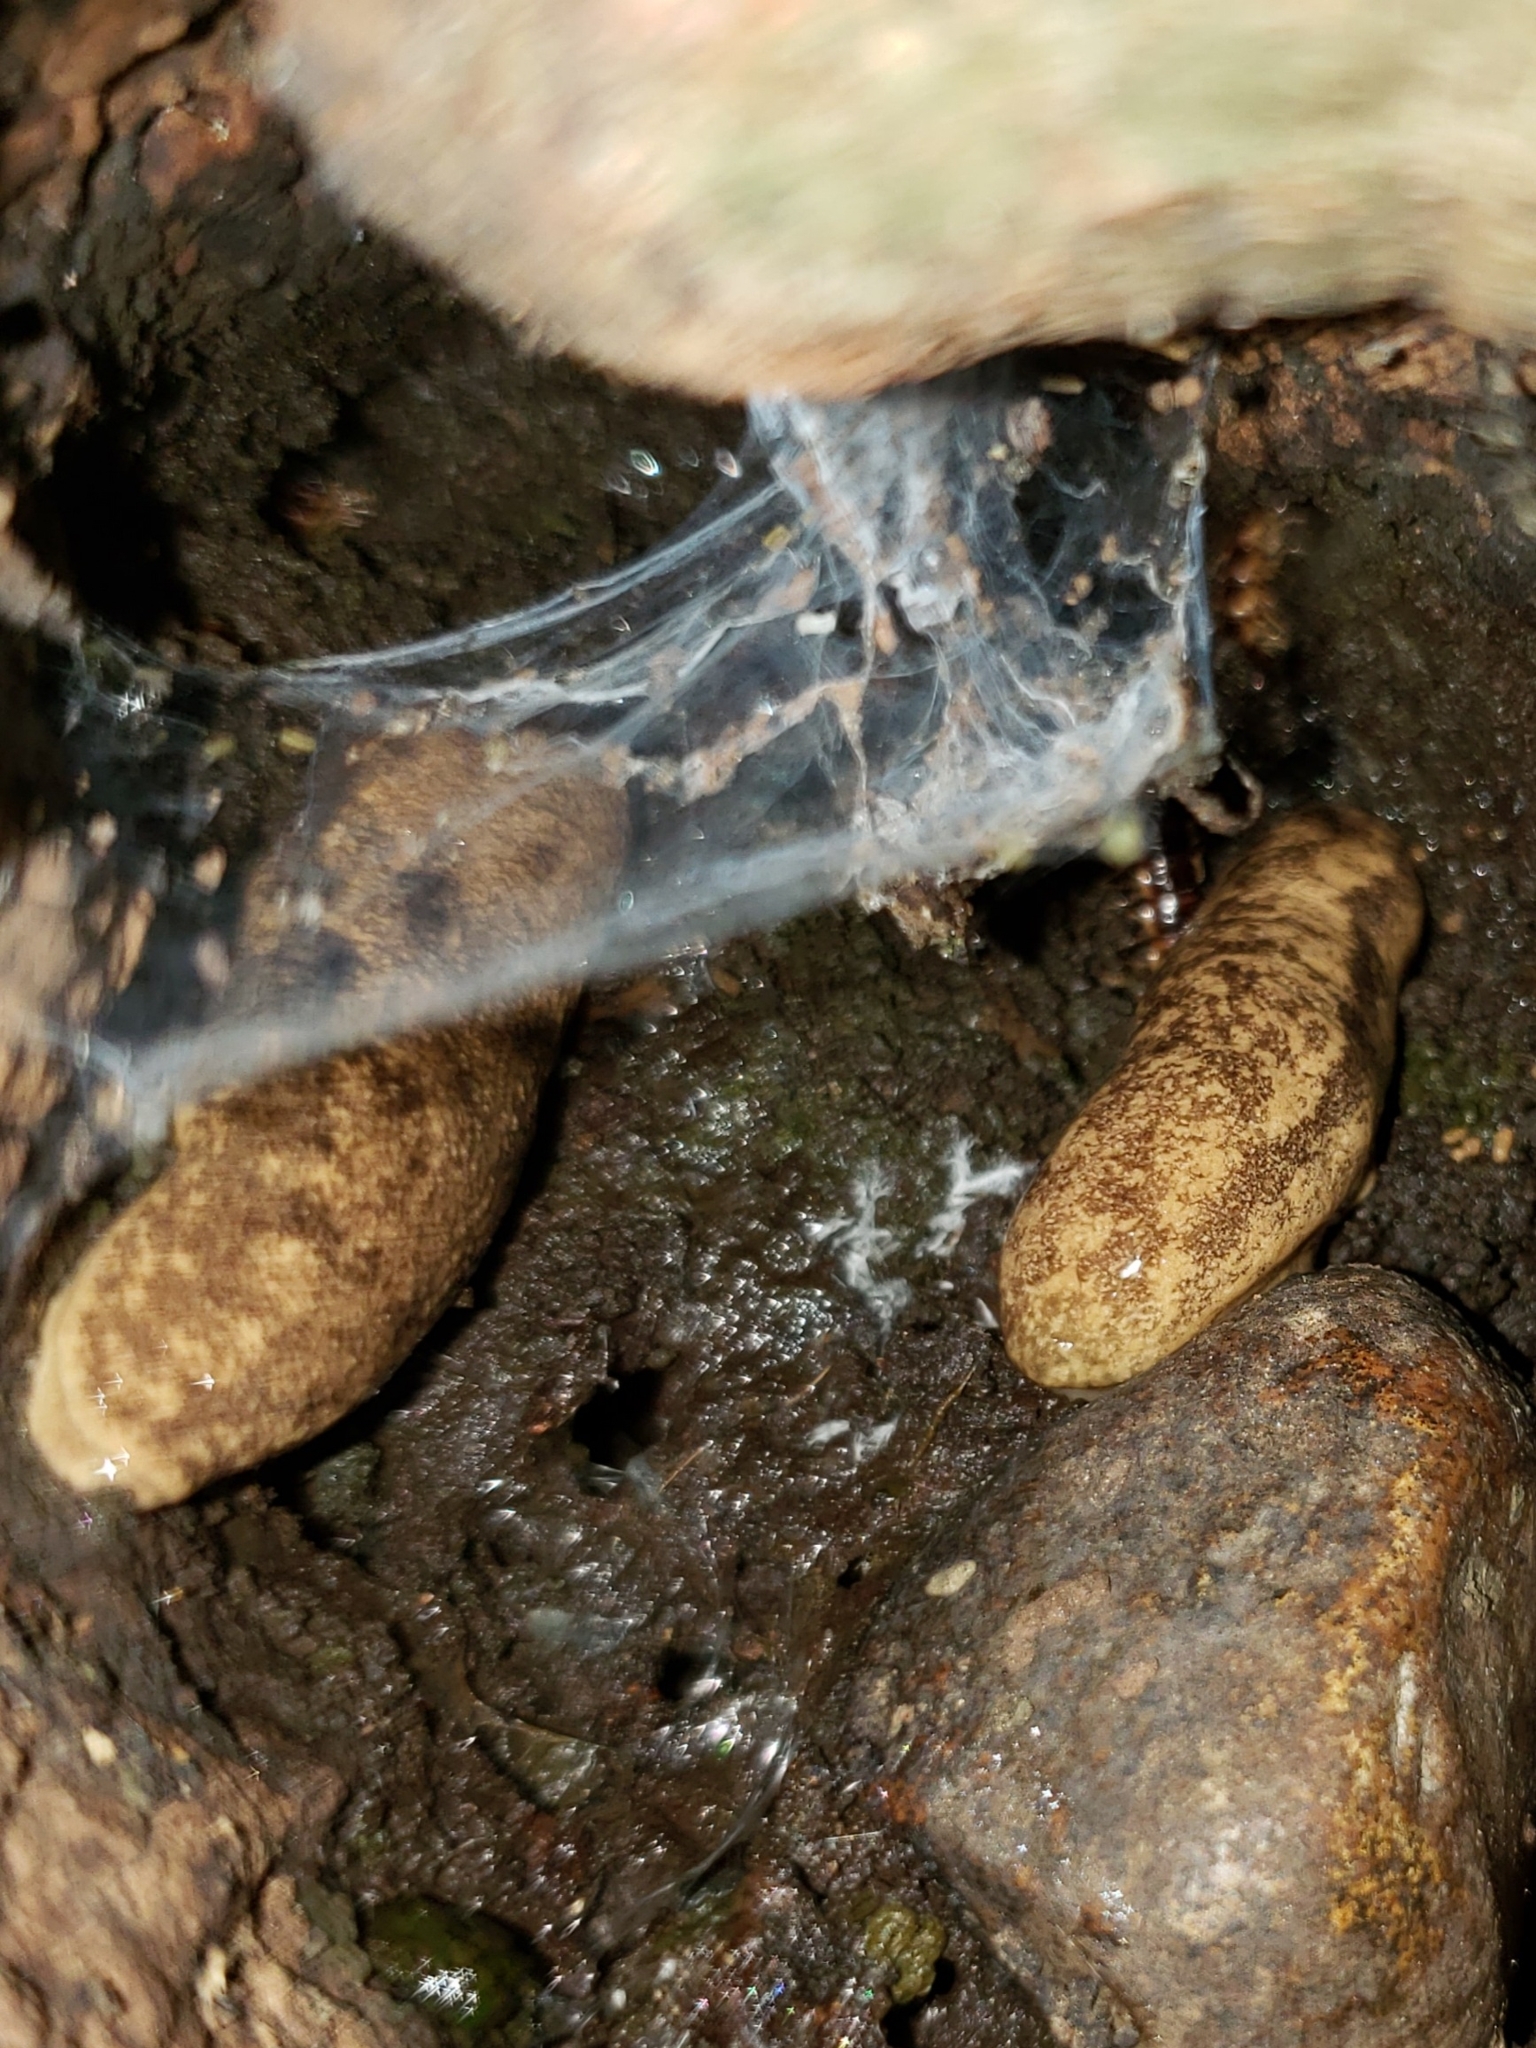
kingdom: Animalia
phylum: Mollusca
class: Gastropoda
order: Stylommatophora
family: Philomycidae
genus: Megapallifera
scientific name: Megapallifera mutabilis
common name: Changeable mantleslug
